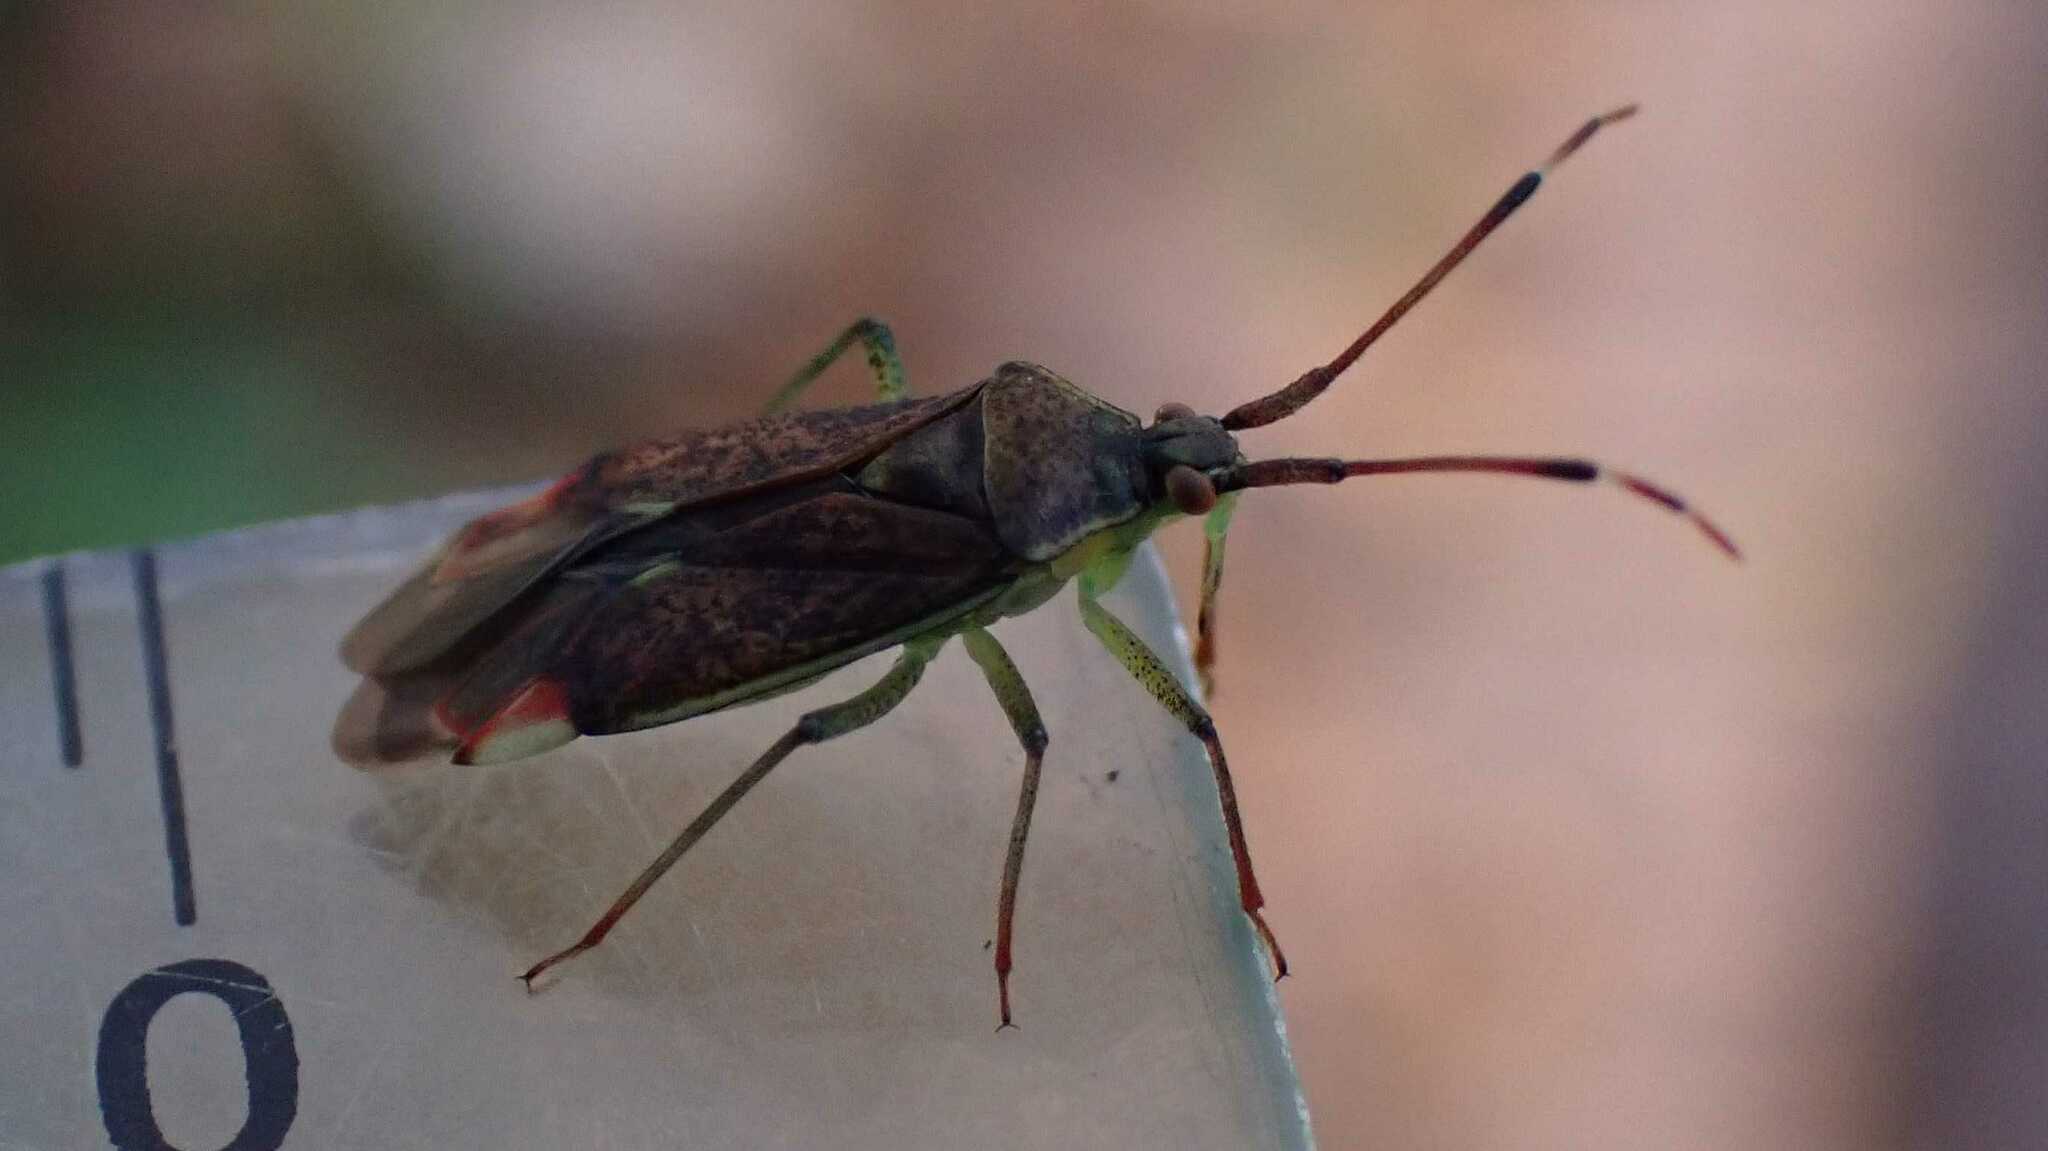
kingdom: Animalia
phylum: Arthropoda
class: Insecta
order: Hemiptera
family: Miridae
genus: Pantilius
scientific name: Pantilius tunicatus
